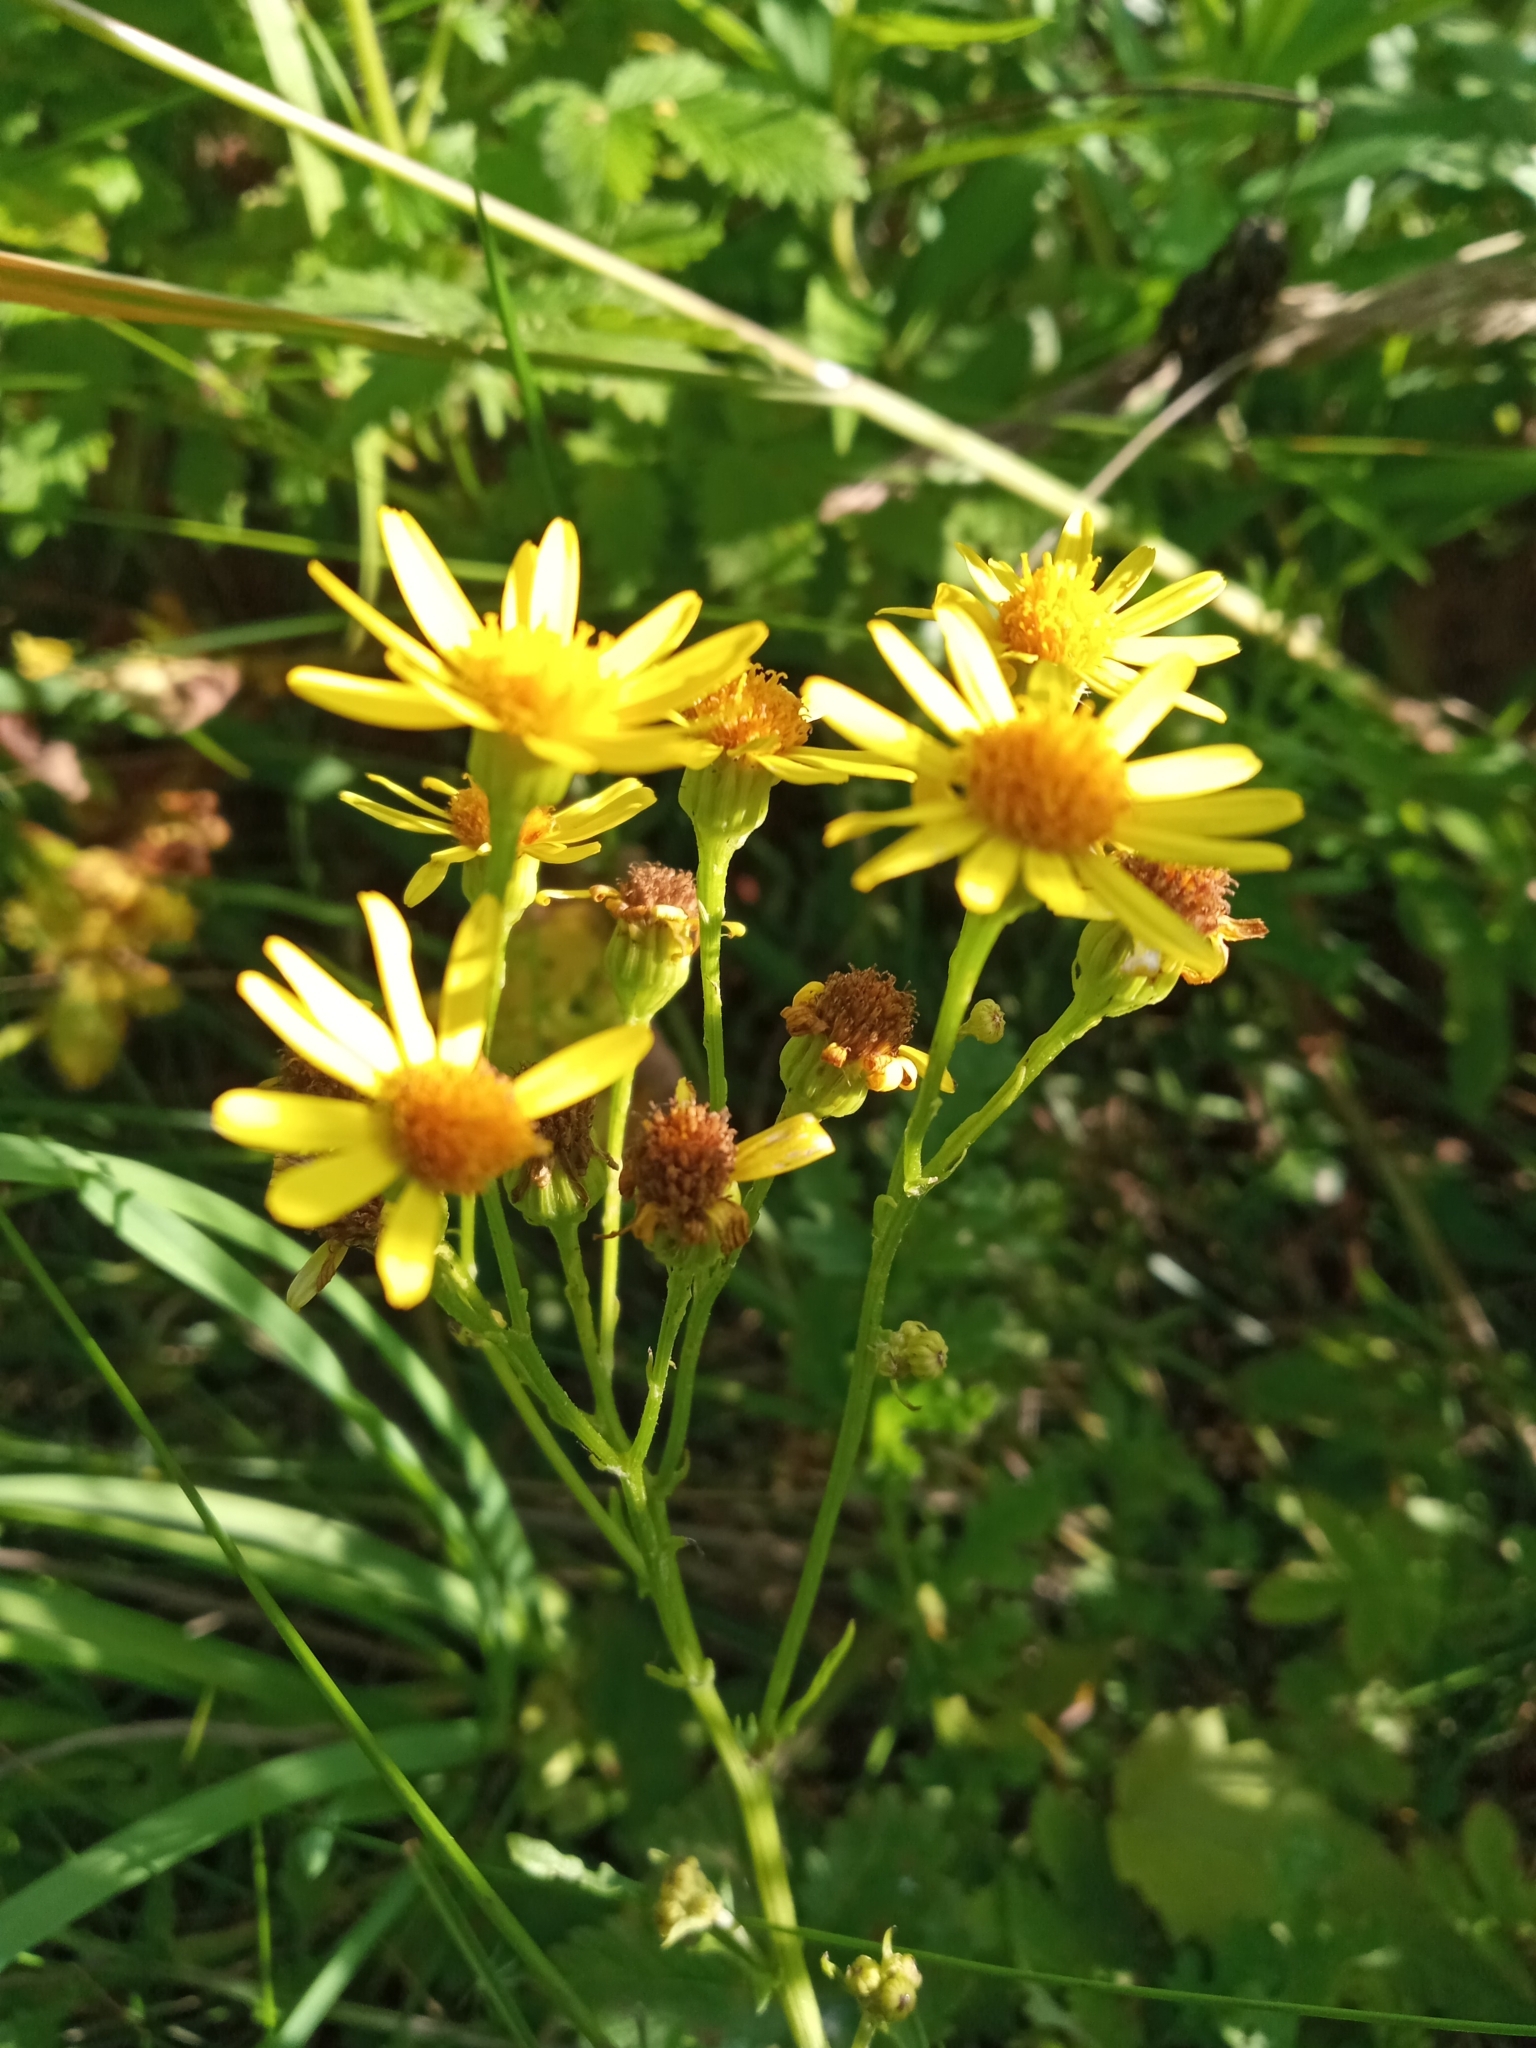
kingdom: Plantae
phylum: Tracheophyta
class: Magnoliopsida
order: Asterales
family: Asteraceae
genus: Jacobaea
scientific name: Jacobaea vulgaris
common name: Stinking willie
